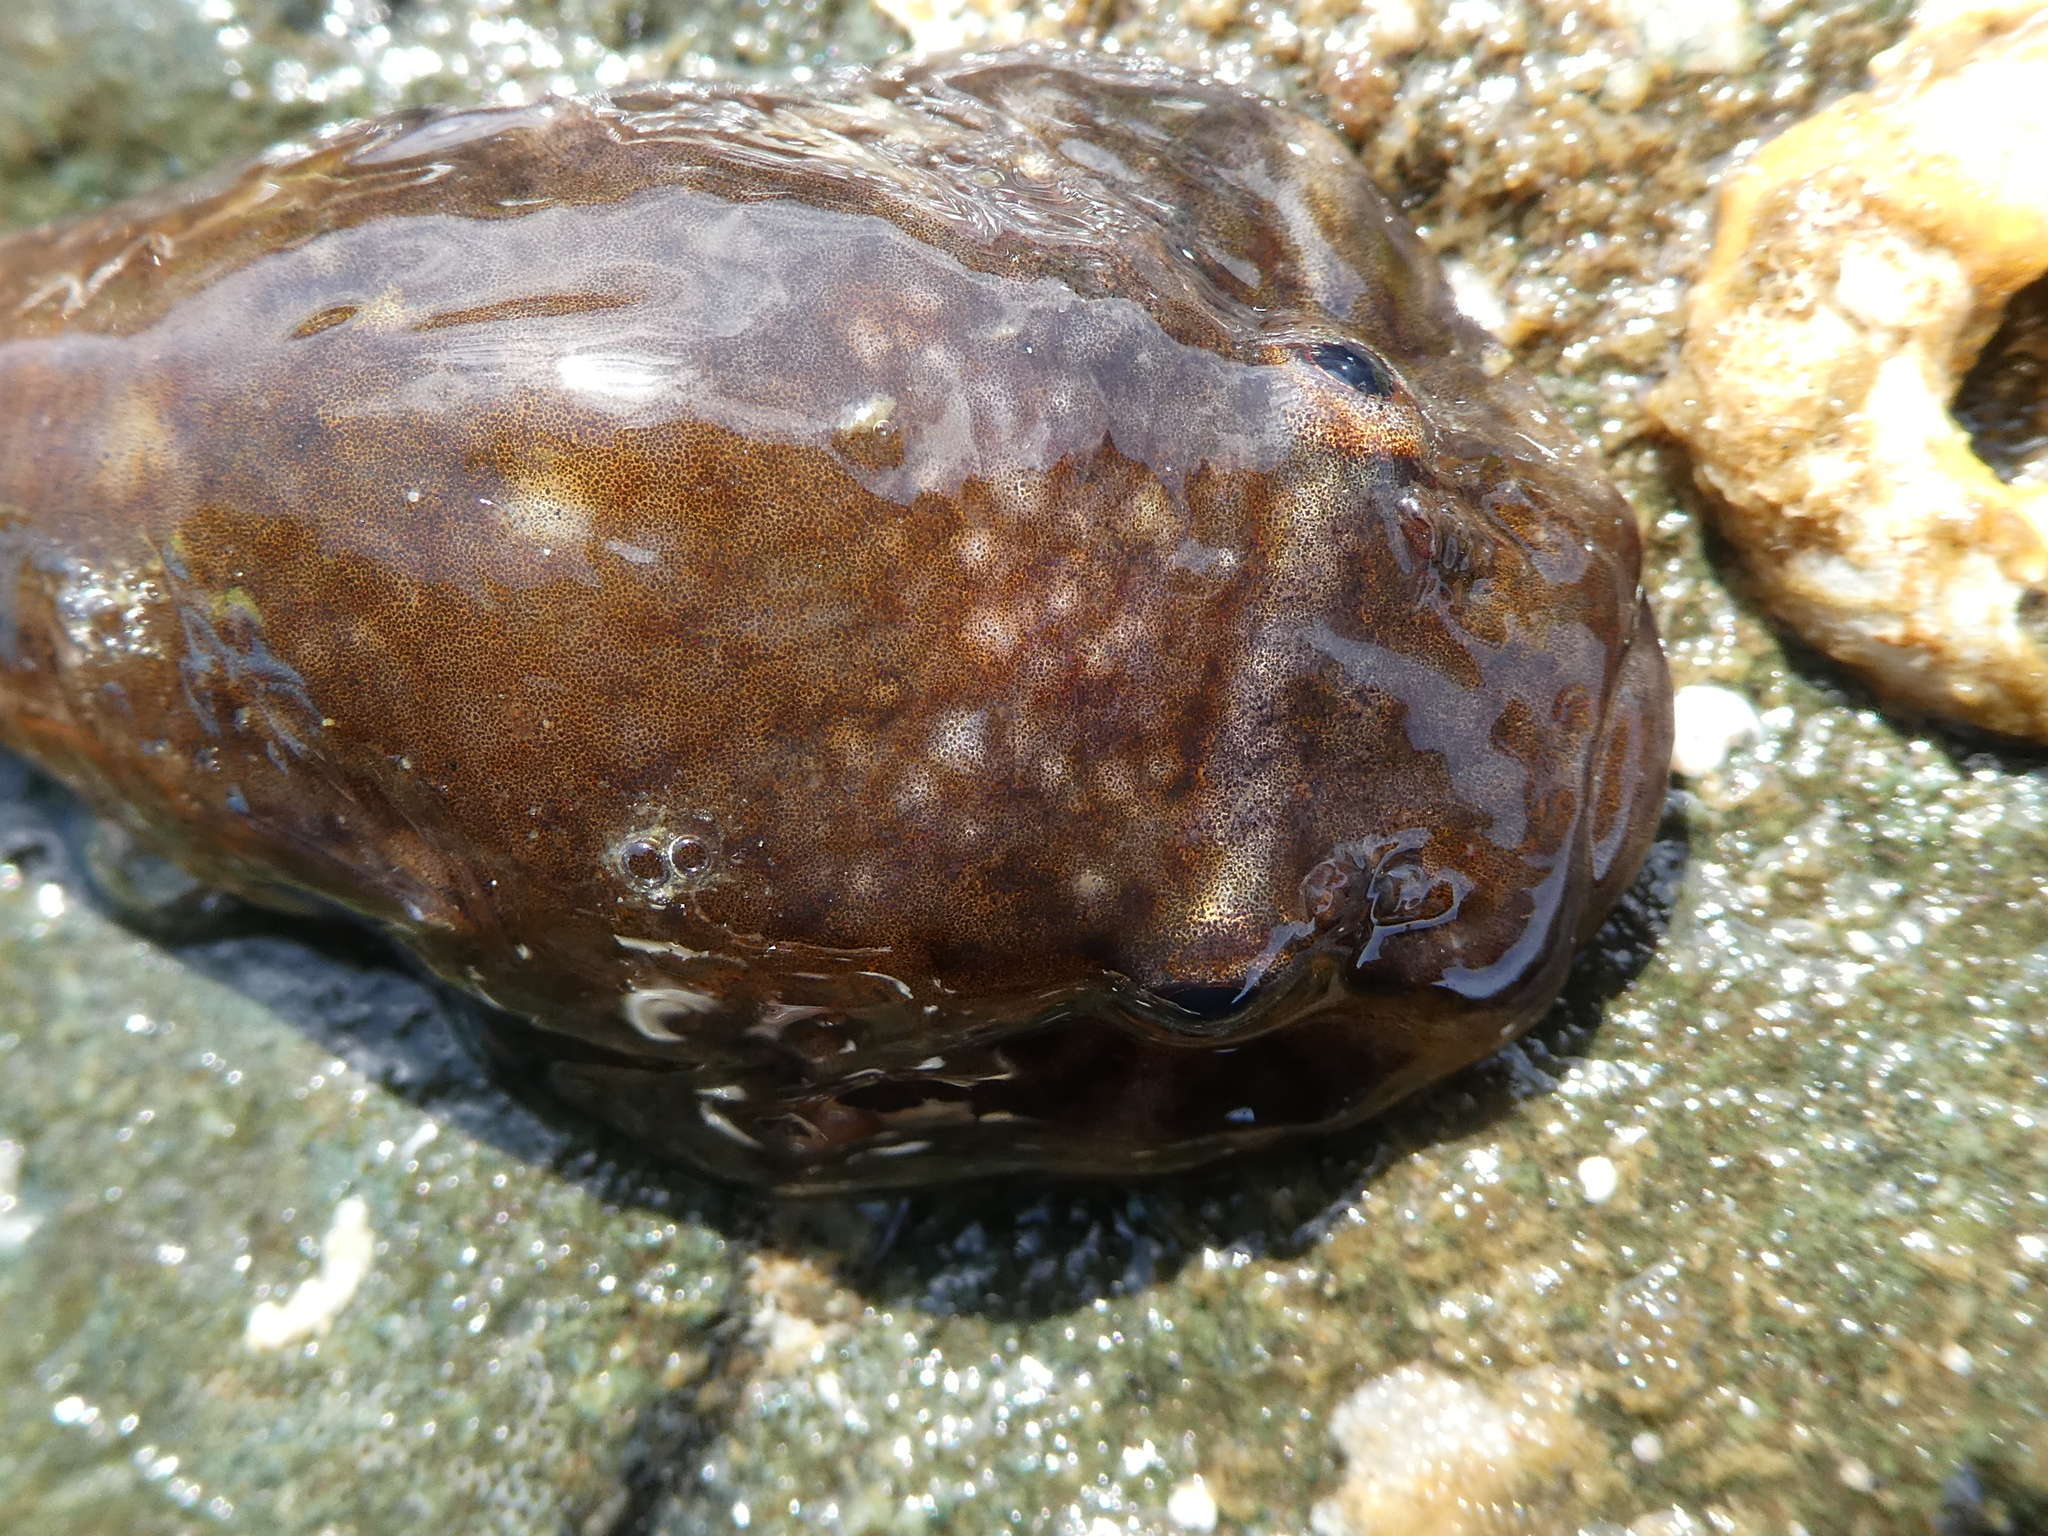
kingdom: Animalia
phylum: Chordata
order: Gobiesociformes
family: Gobiesocidae
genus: Gobiesox
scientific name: Gobiesox maeandricus
